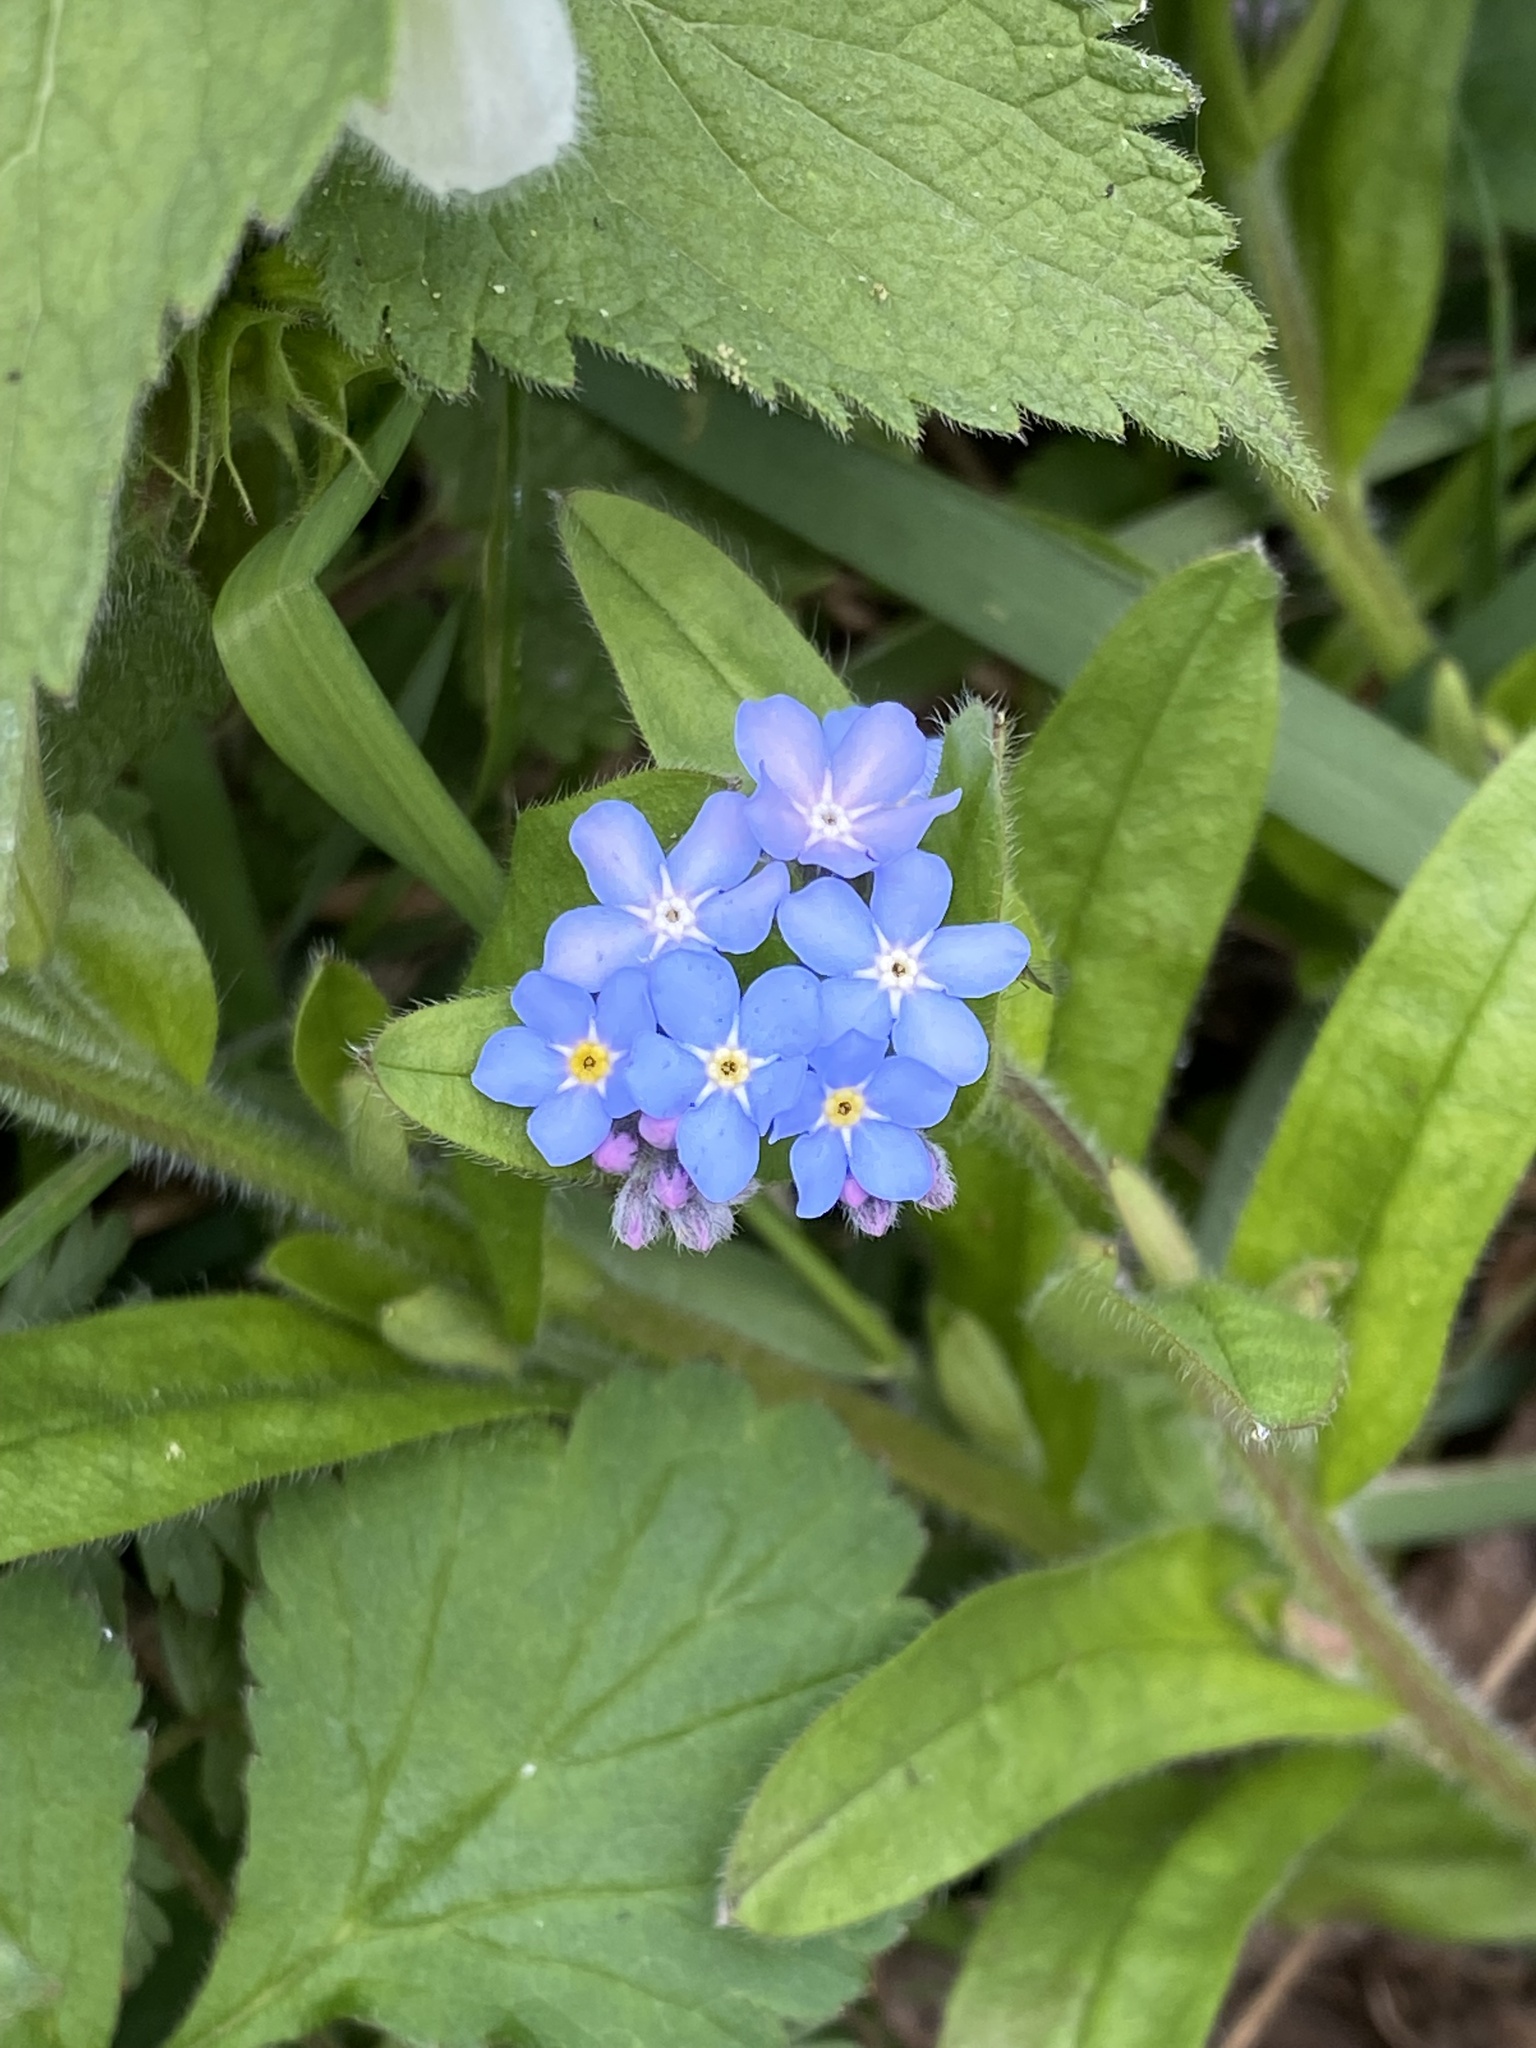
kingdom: Plantae
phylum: Tracheophyta
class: Magnoliopsida
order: Boraginales
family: Boraginaceae
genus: Myosotis
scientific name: Myosotis sylvatica
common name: Wood forget-me-not
